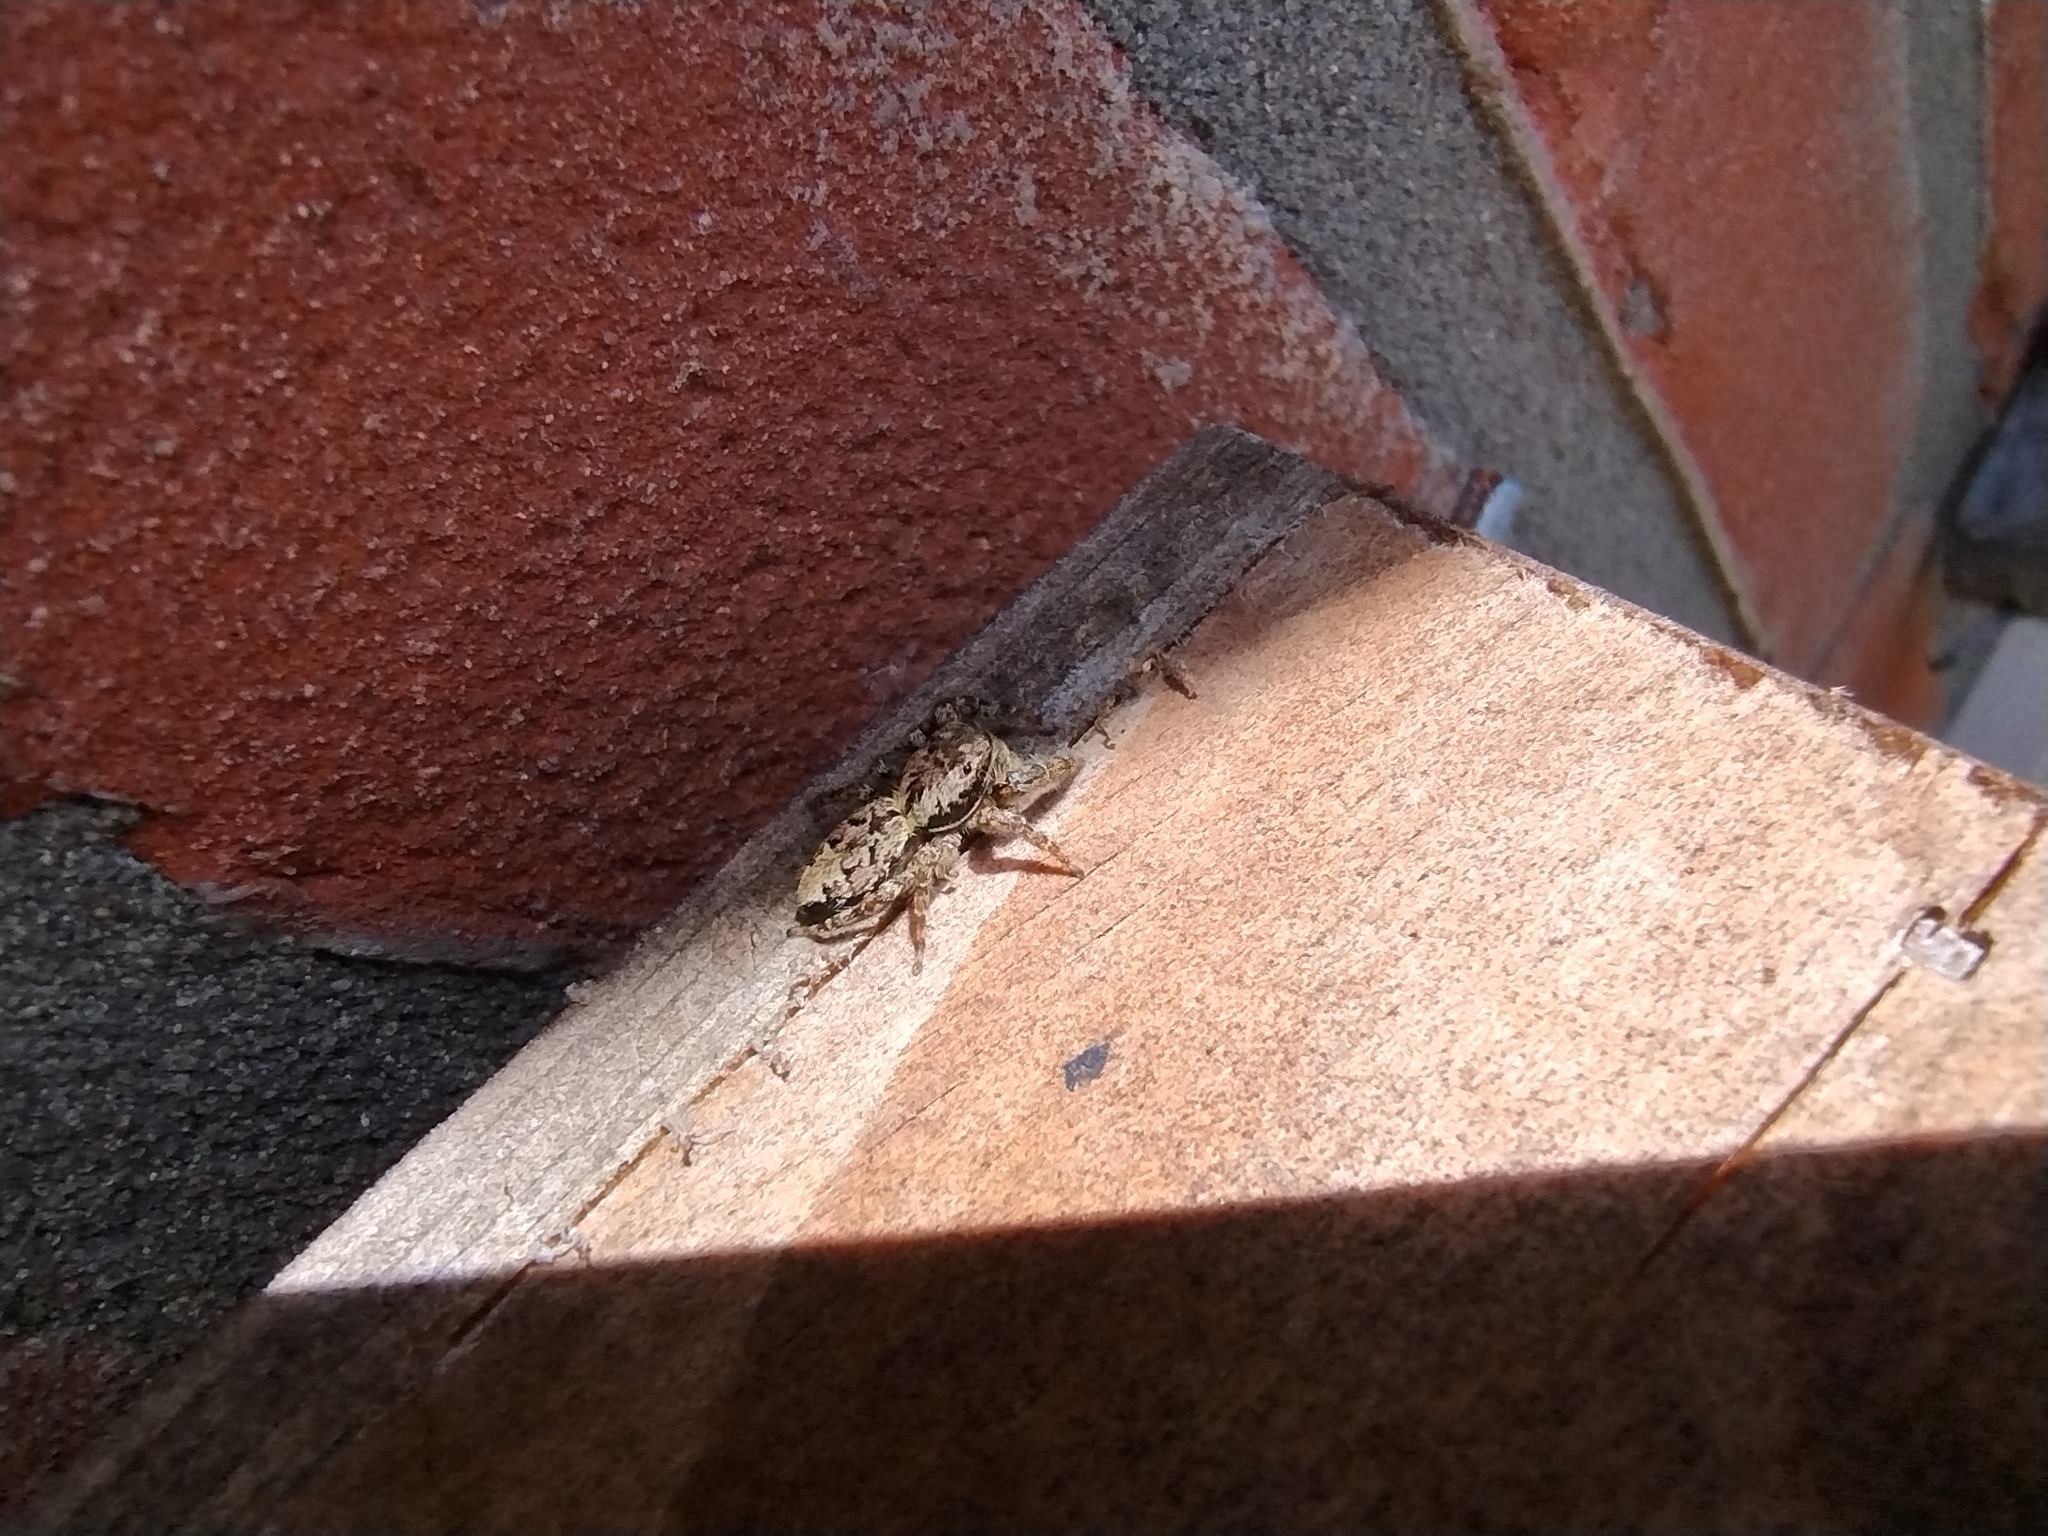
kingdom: Animalia
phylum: Arthropoda
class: Arachnida
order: Araneae
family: Salticidae
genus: Marpissa
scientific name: Marpissa muscosa
